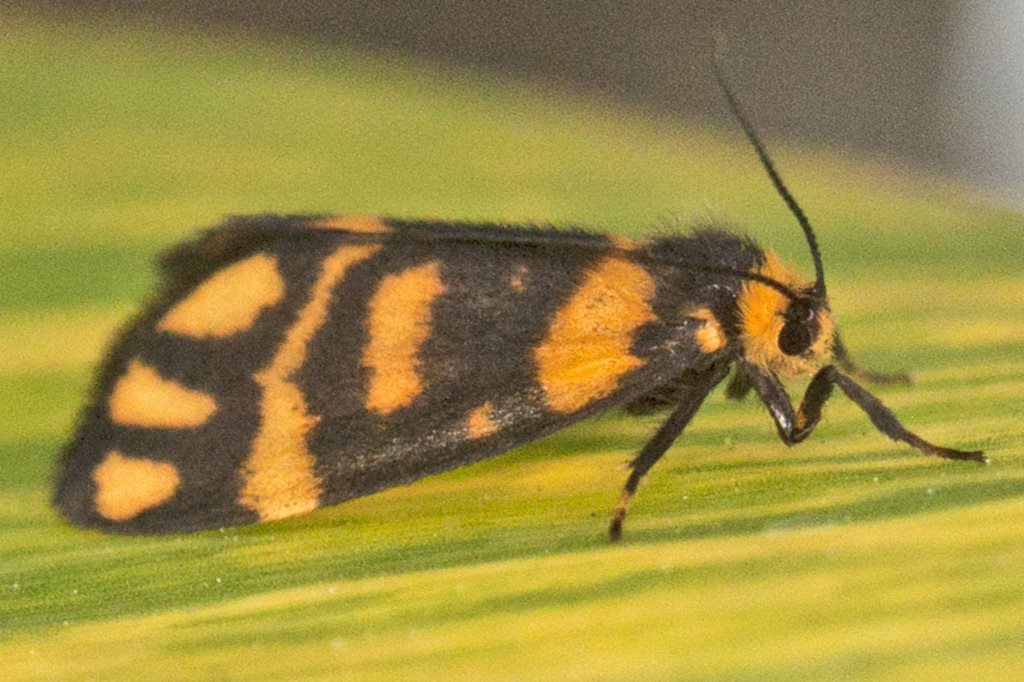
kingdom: Animalia
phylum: Arthropoda
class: Insecta
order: Lepidoptera
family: Erebidae
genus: Asura
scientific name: Asura lydia
